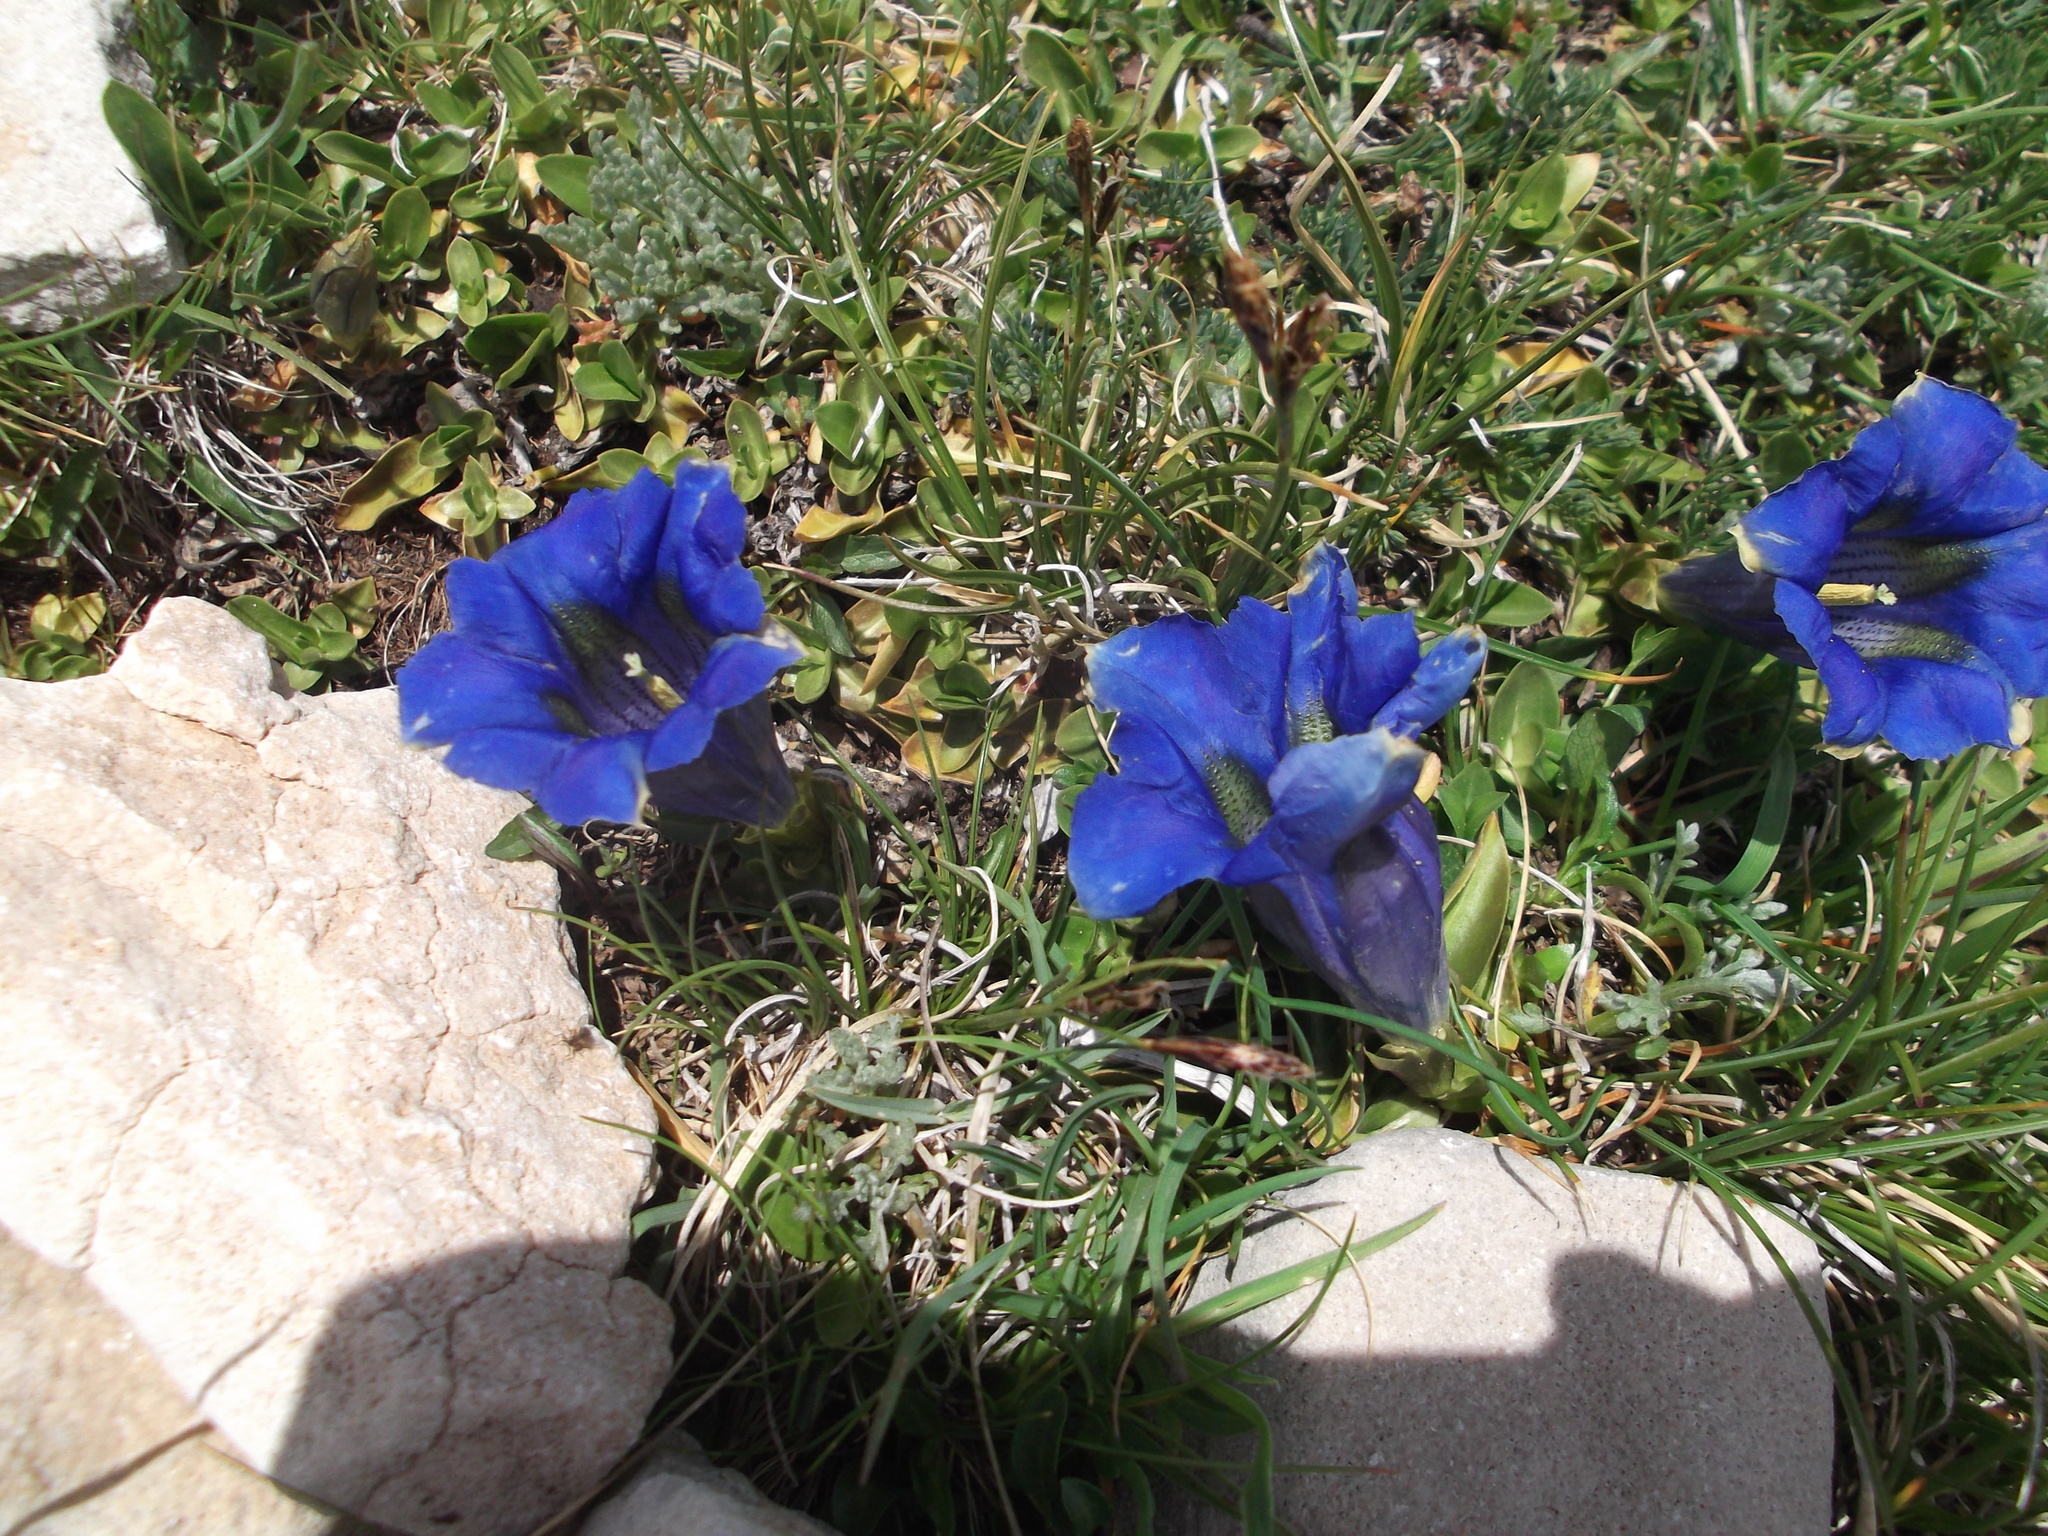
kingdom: Plantae
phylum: Tracheophyta
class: Magnoliopsida
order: Gentianales
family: Gentianaceae
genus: Gentiana
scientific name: Gentiana acaulis
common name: Trumpet gentian
